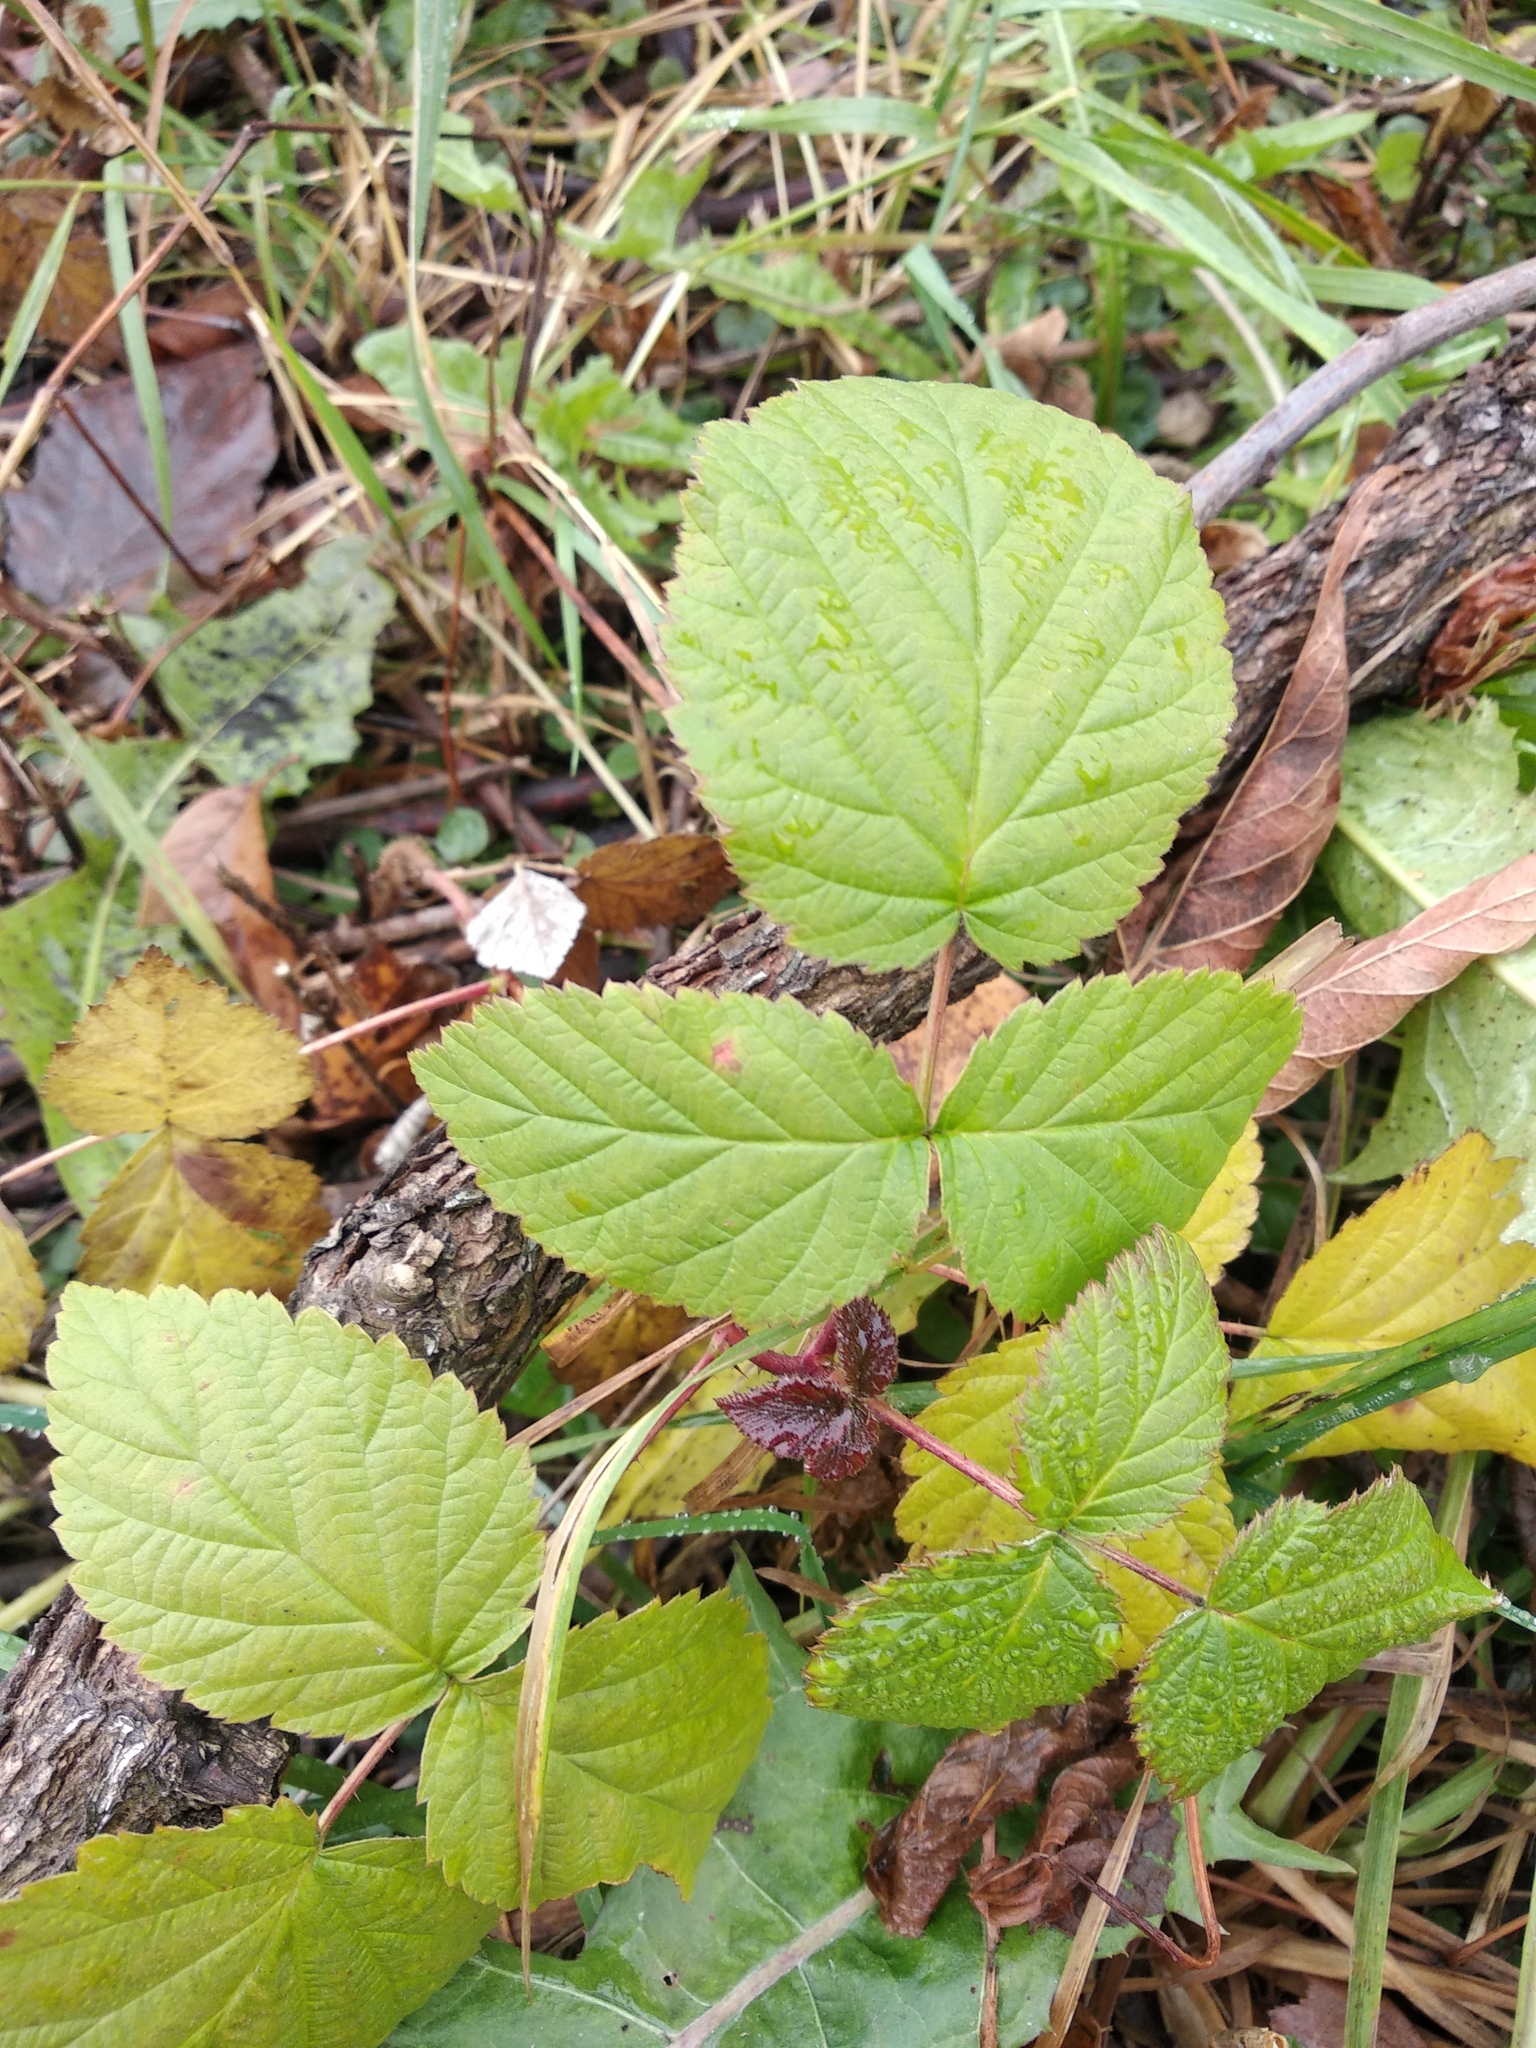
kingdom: Plantae
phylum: Tracheophyta
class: Magnoliopsida
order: Rosales
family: Rosaceae
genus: Rubus
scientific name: Rubus idaeus
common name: Raspberry
